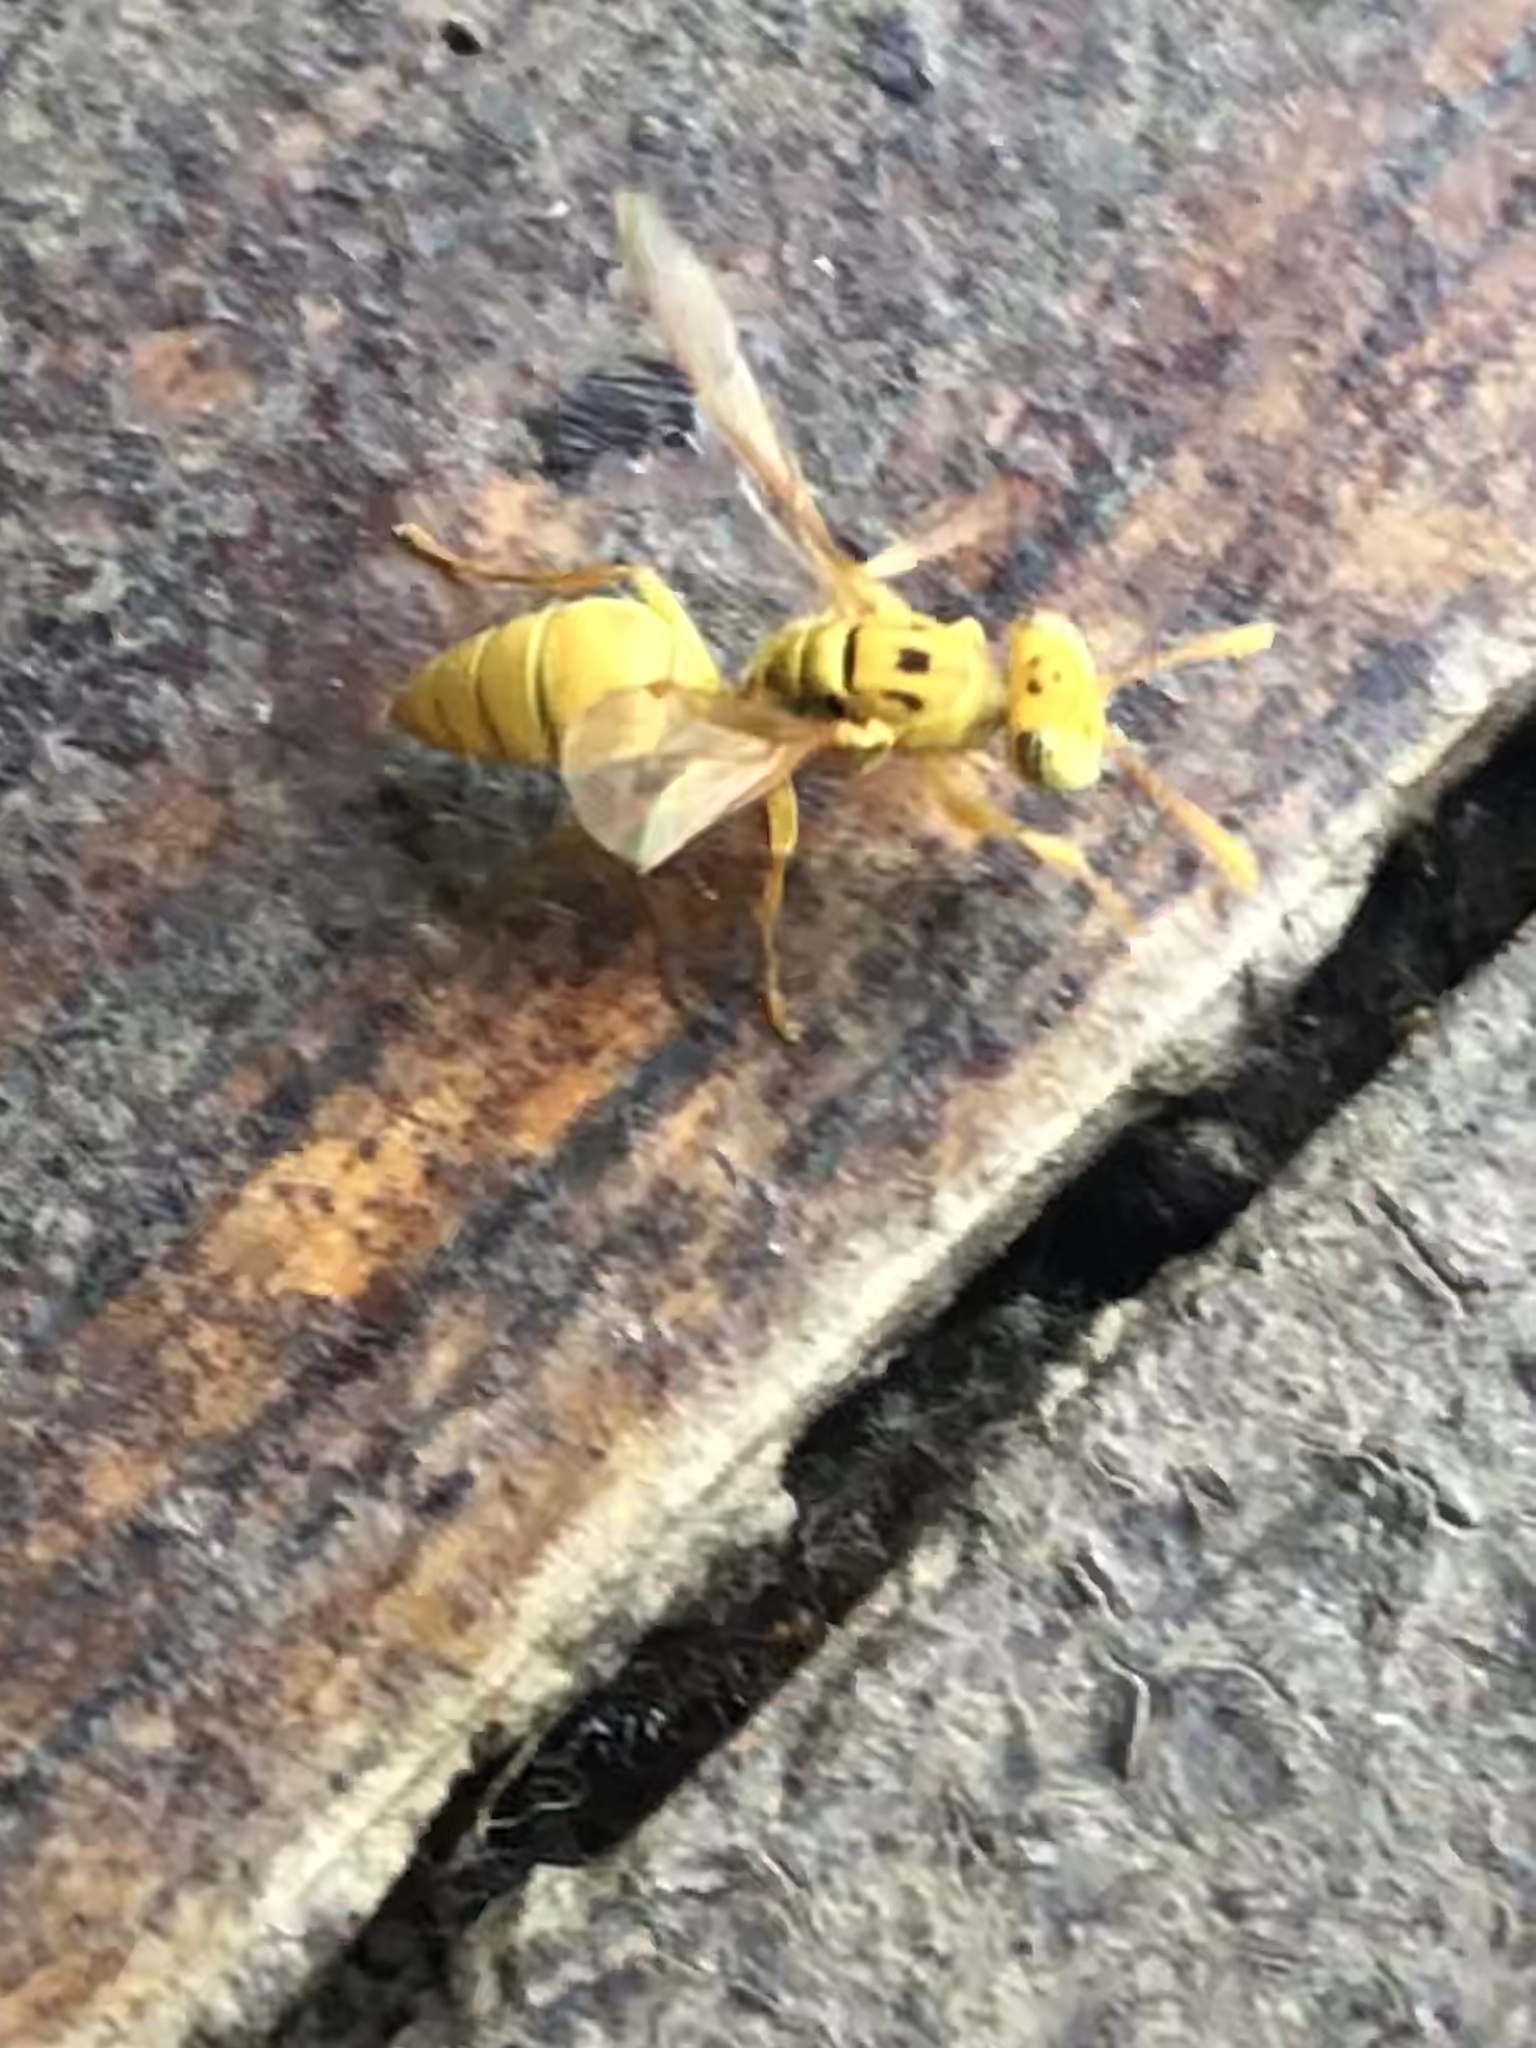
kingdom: Animalia
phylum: Arthropoda
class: Insecta
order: Hymenoptera
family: Vespidae
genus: Protopolybia
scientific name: Protopolybia amarella
